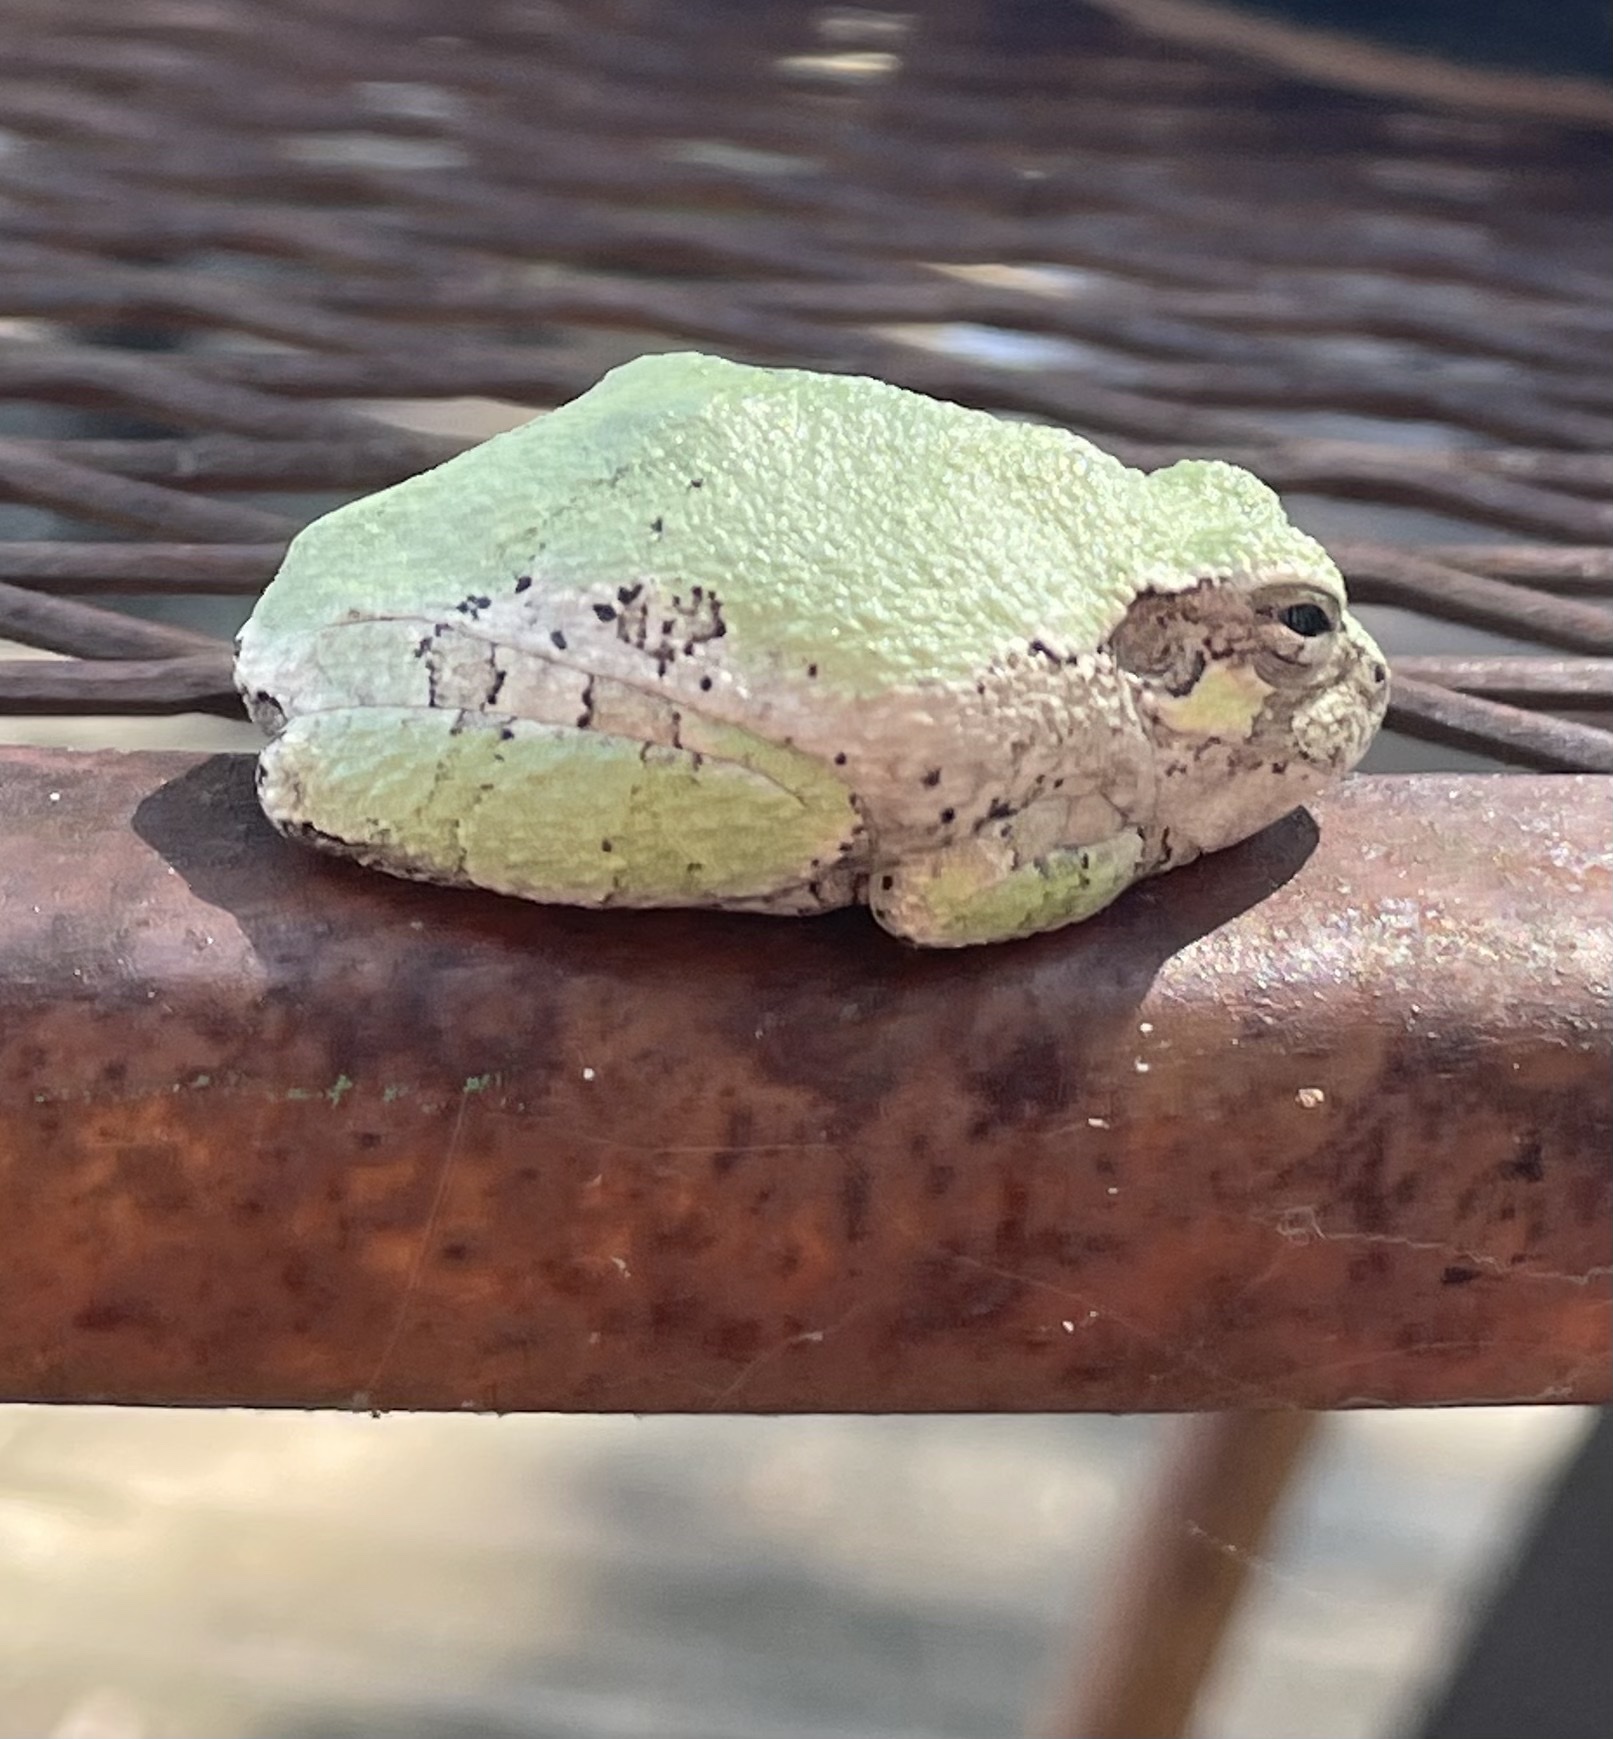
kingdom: Animalia
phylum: Chordata
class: Amphibia
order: Anura
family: Hylidae
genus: Dryophytes
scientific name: Dryophytes chrysoscelis
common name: Cope's gray treefrog
